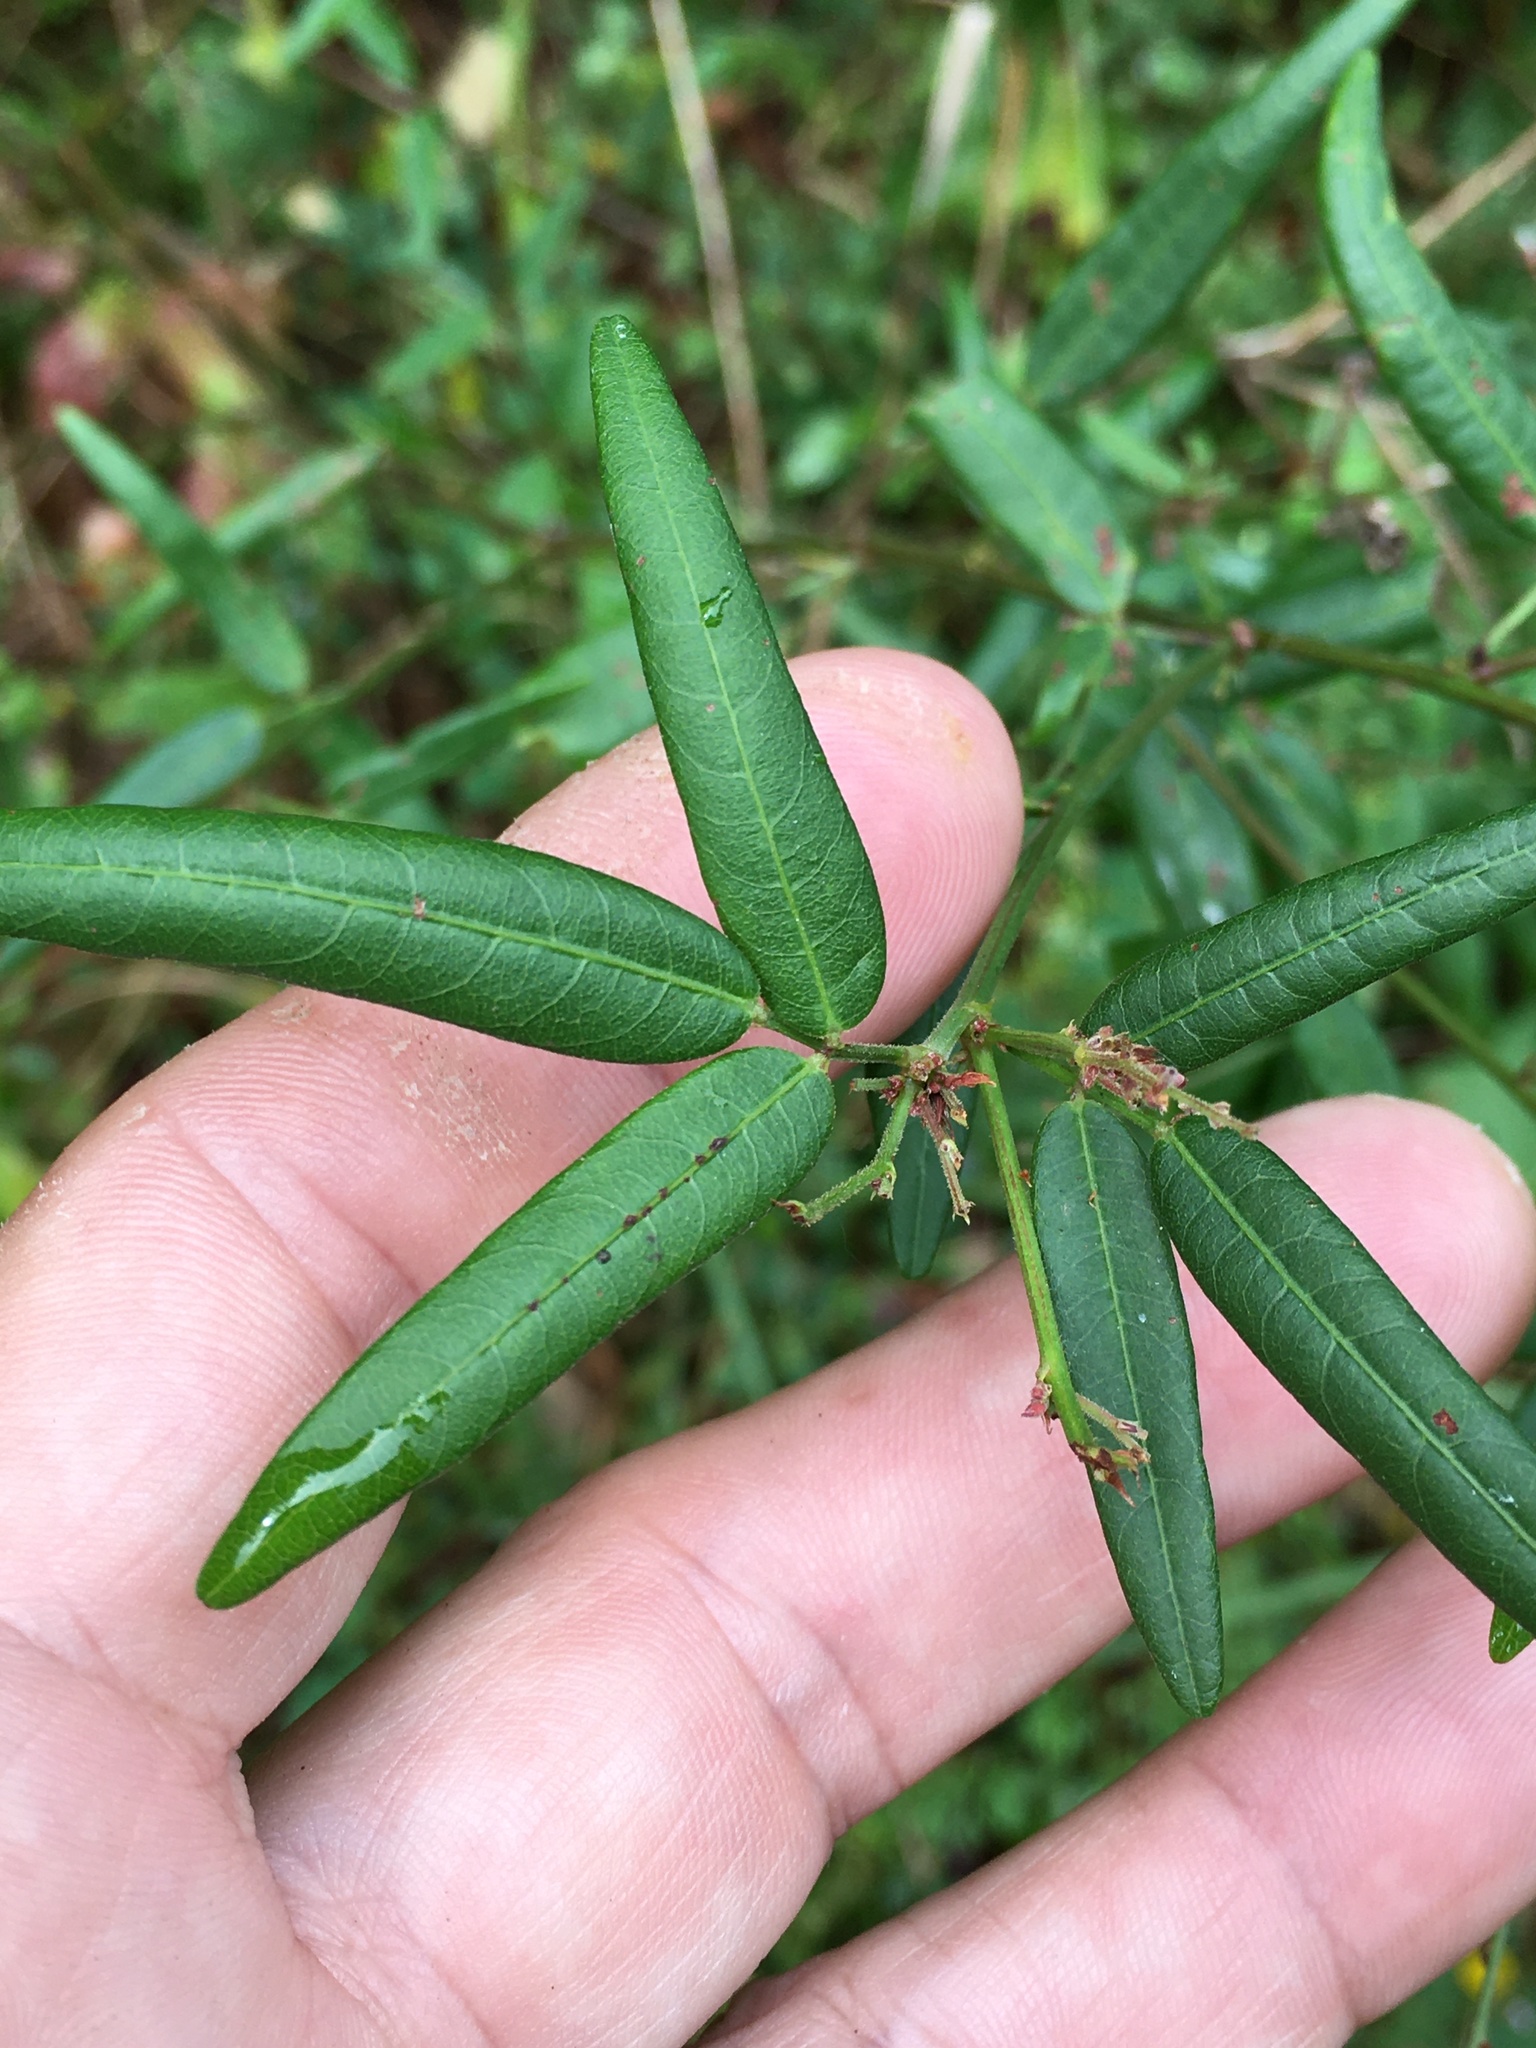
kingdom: Plantae
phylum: Tracheophyta
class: Magnoliopsida
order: Fabales
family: Fabaceae
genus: Desmodium
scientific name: Desmodium paniculatum
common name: Panicled tick-clover
